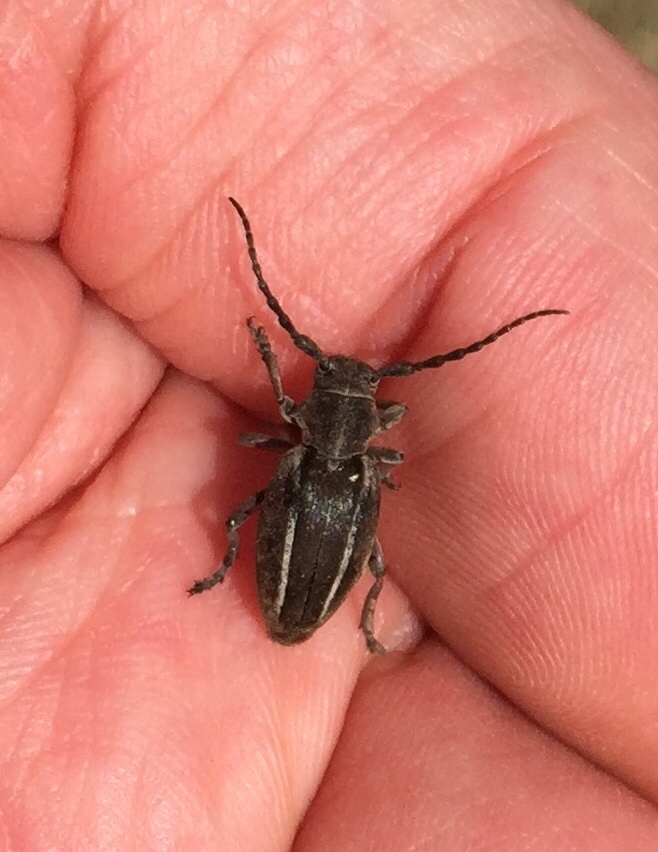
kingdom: Animalia
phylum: Arthropoda
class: Insecta
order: Coleoptera
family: Cerambycidae
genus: Neodorcadion
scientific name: Neodorcadion bilineatum
